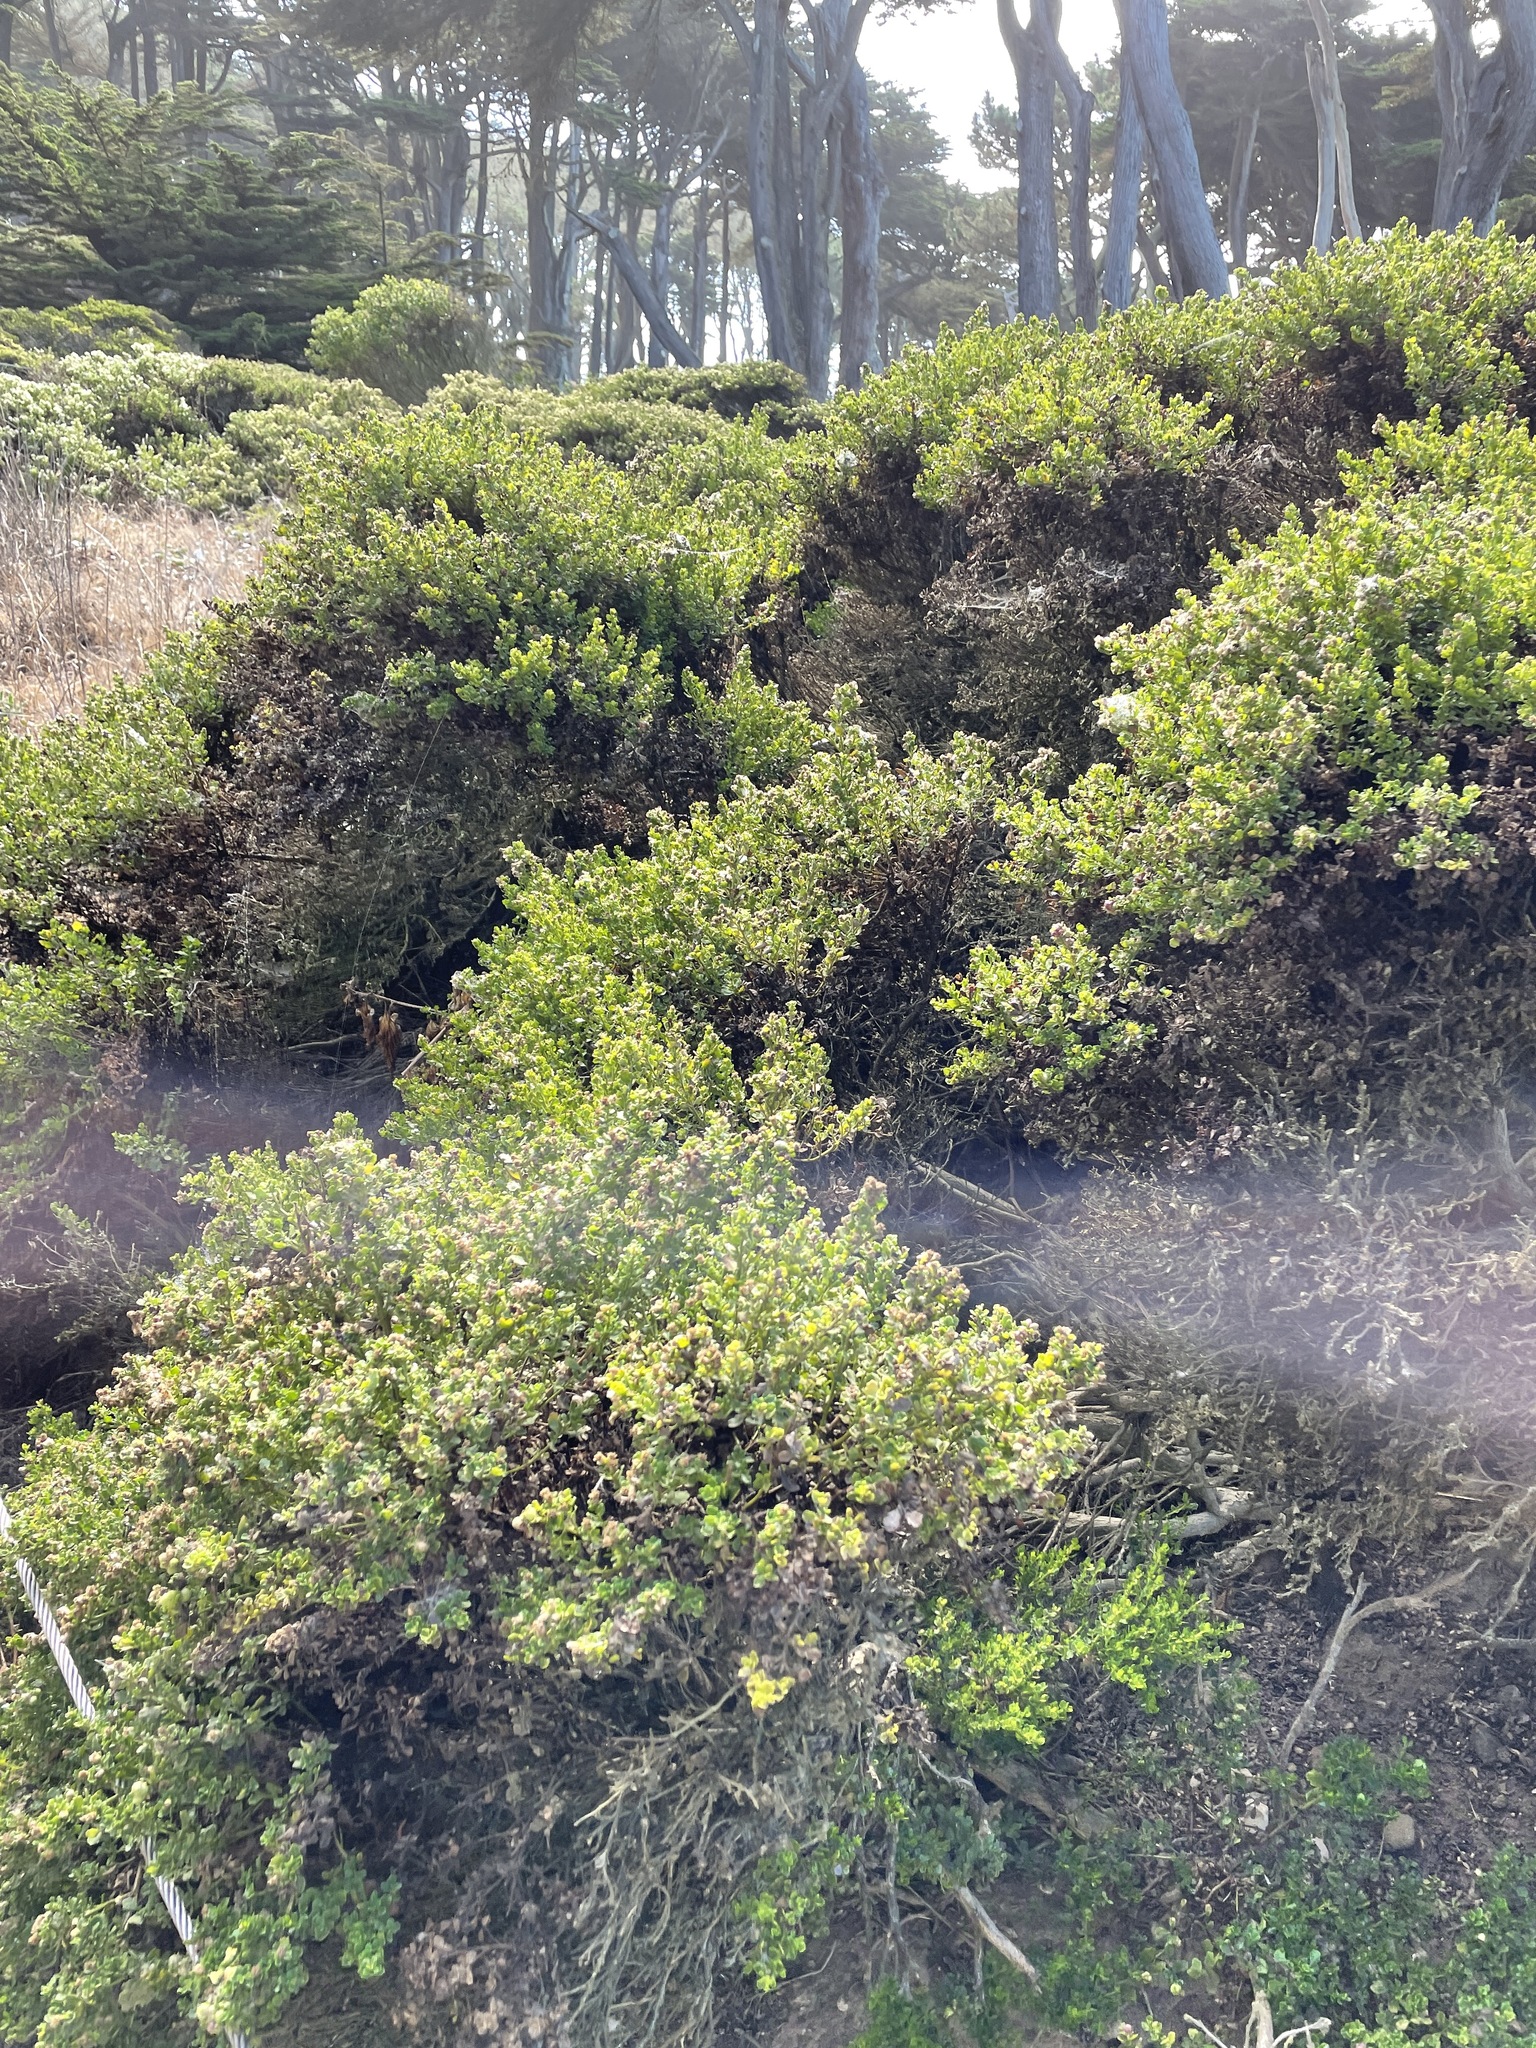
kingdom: Plantae
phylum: Tracheophyta
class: Magnoliopsida
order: Asterales
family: Asteraceae
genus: Baccharis
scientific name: Baccharis pilularis
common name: Coyotebrush
